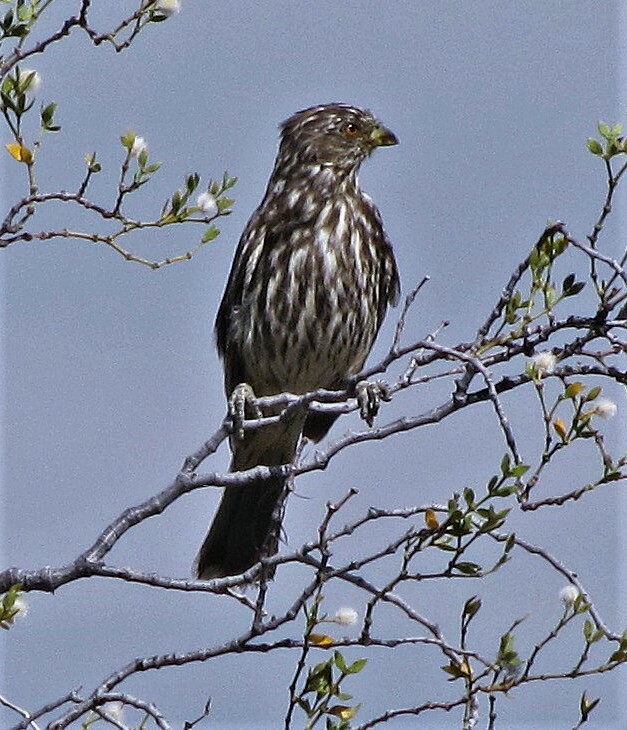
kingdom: Animalia
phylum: Chordata
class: Aves
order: Passeriformes
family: Cotingidae
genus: Phytotoma
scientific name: Phytotoma rutila
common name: White-tipped plantcutter
